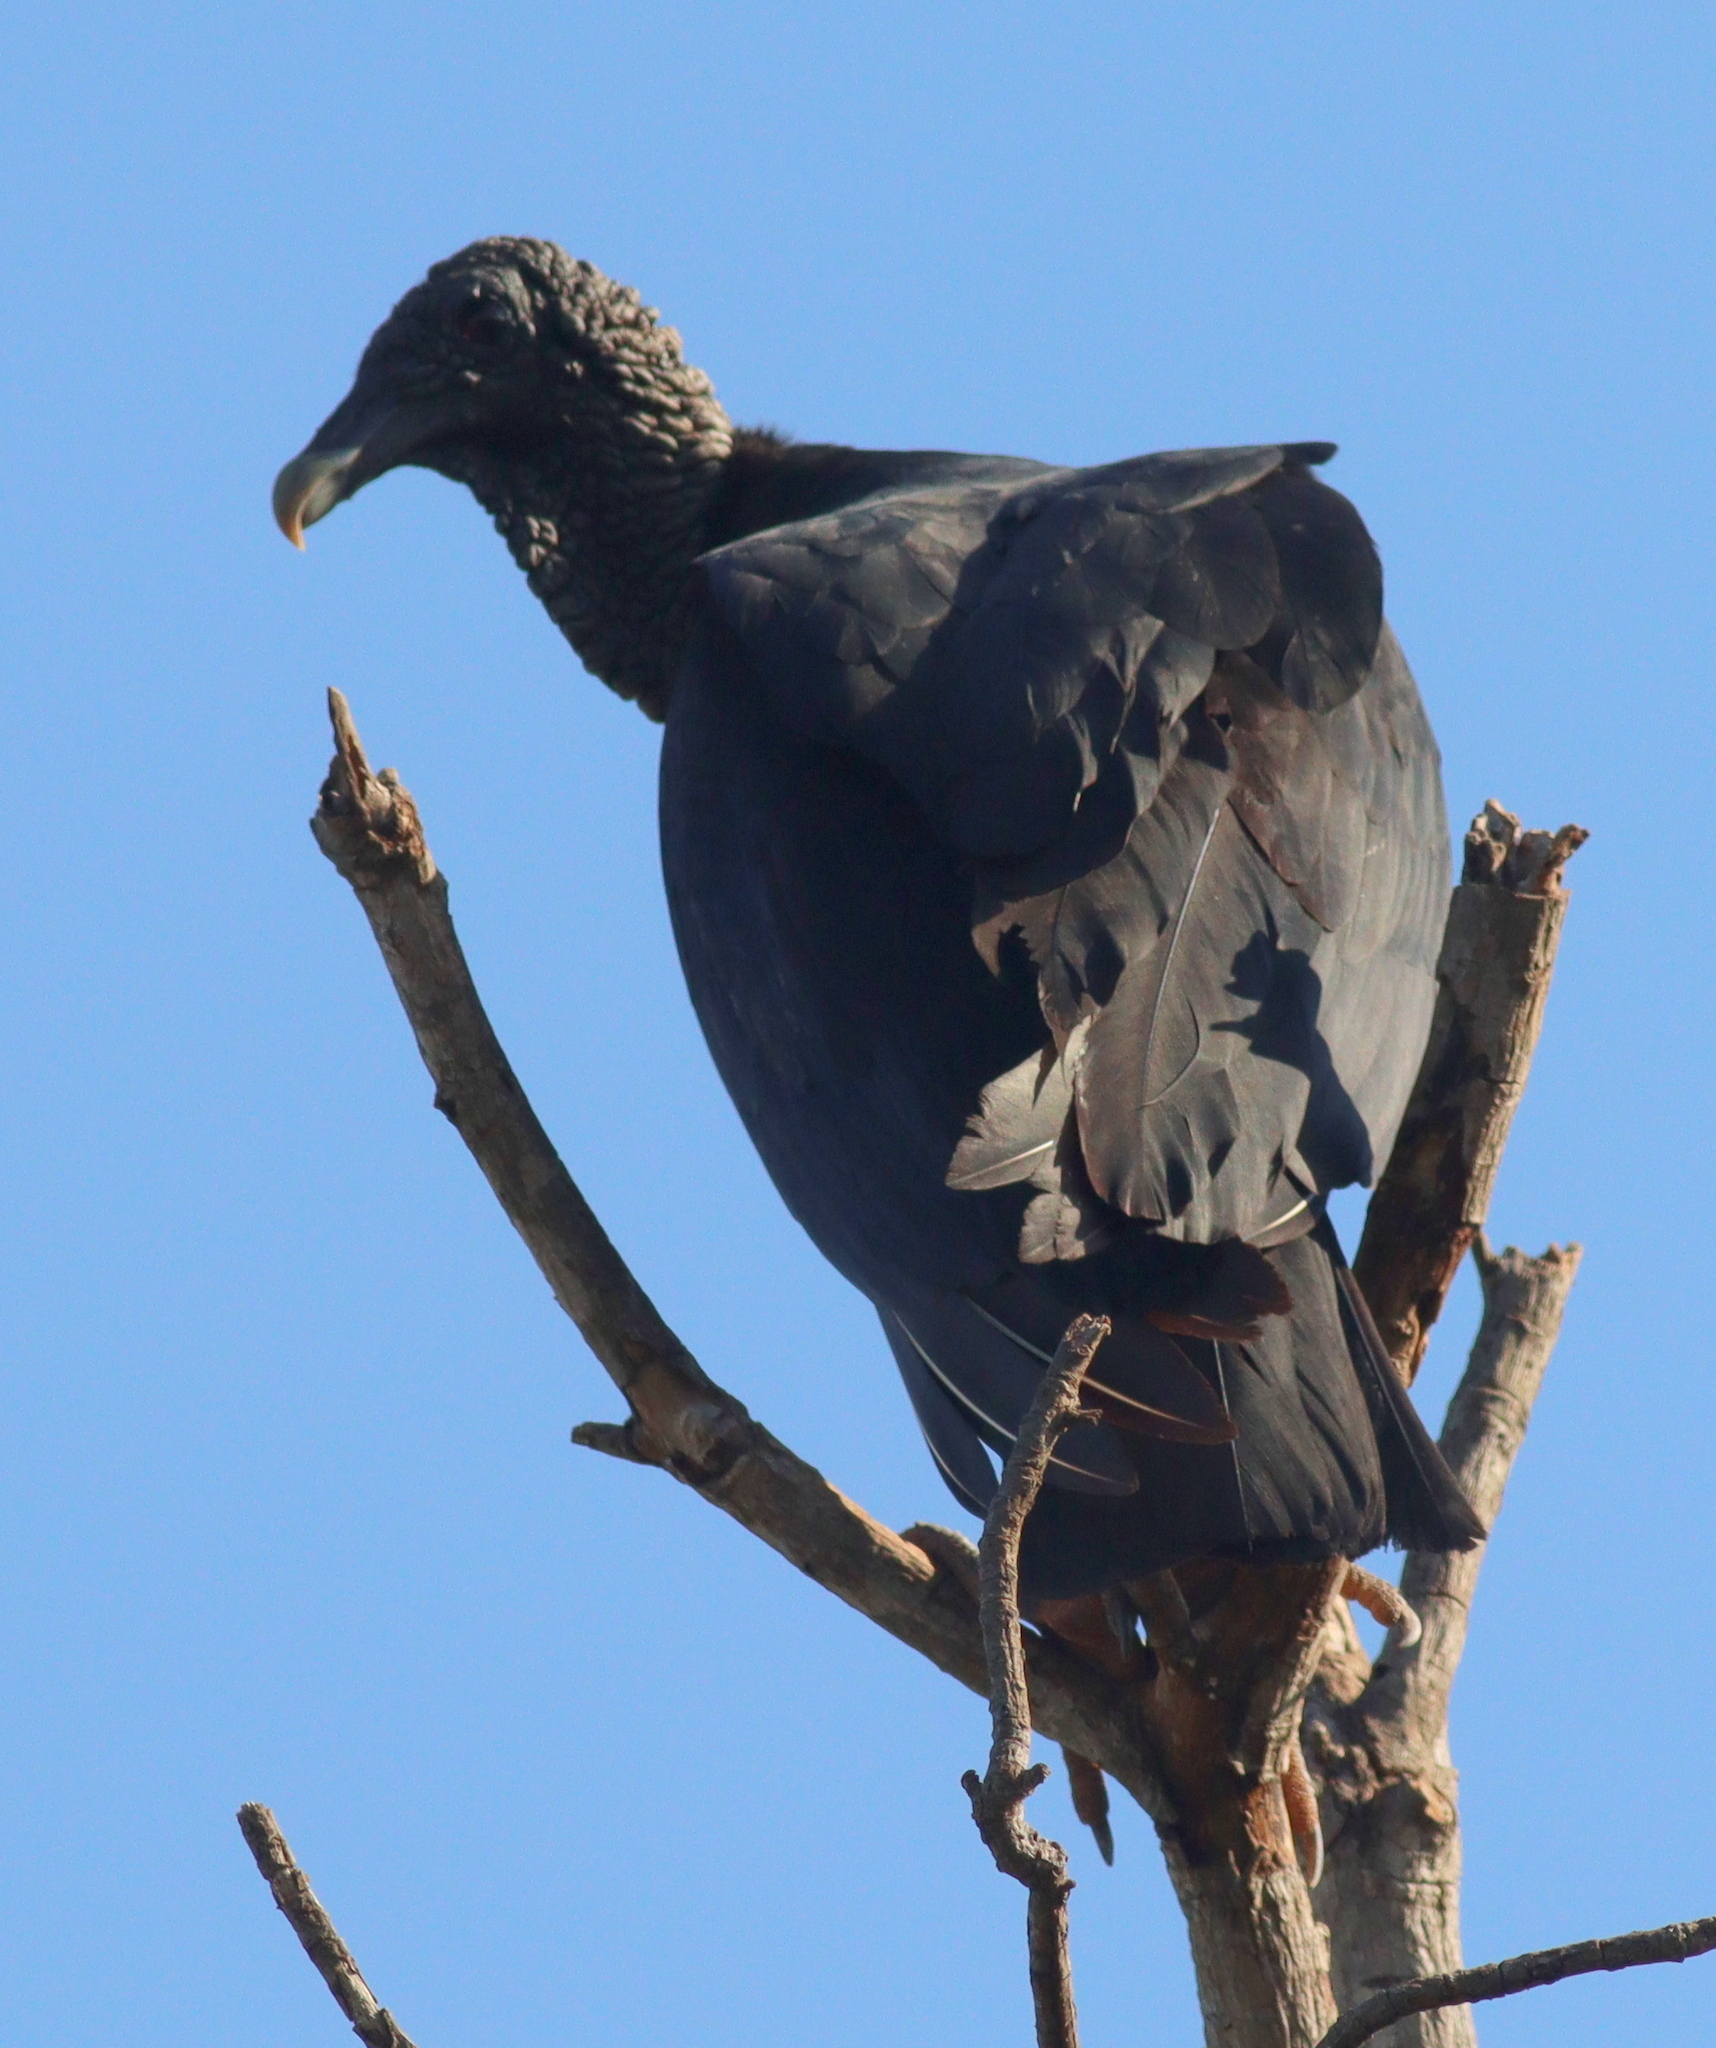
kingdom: Animalia
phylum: Chordata
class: Aves
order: Accipitriformes
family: Cathartidae
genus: Coragyps
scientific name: Coragyps atratus
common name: Black vulture
